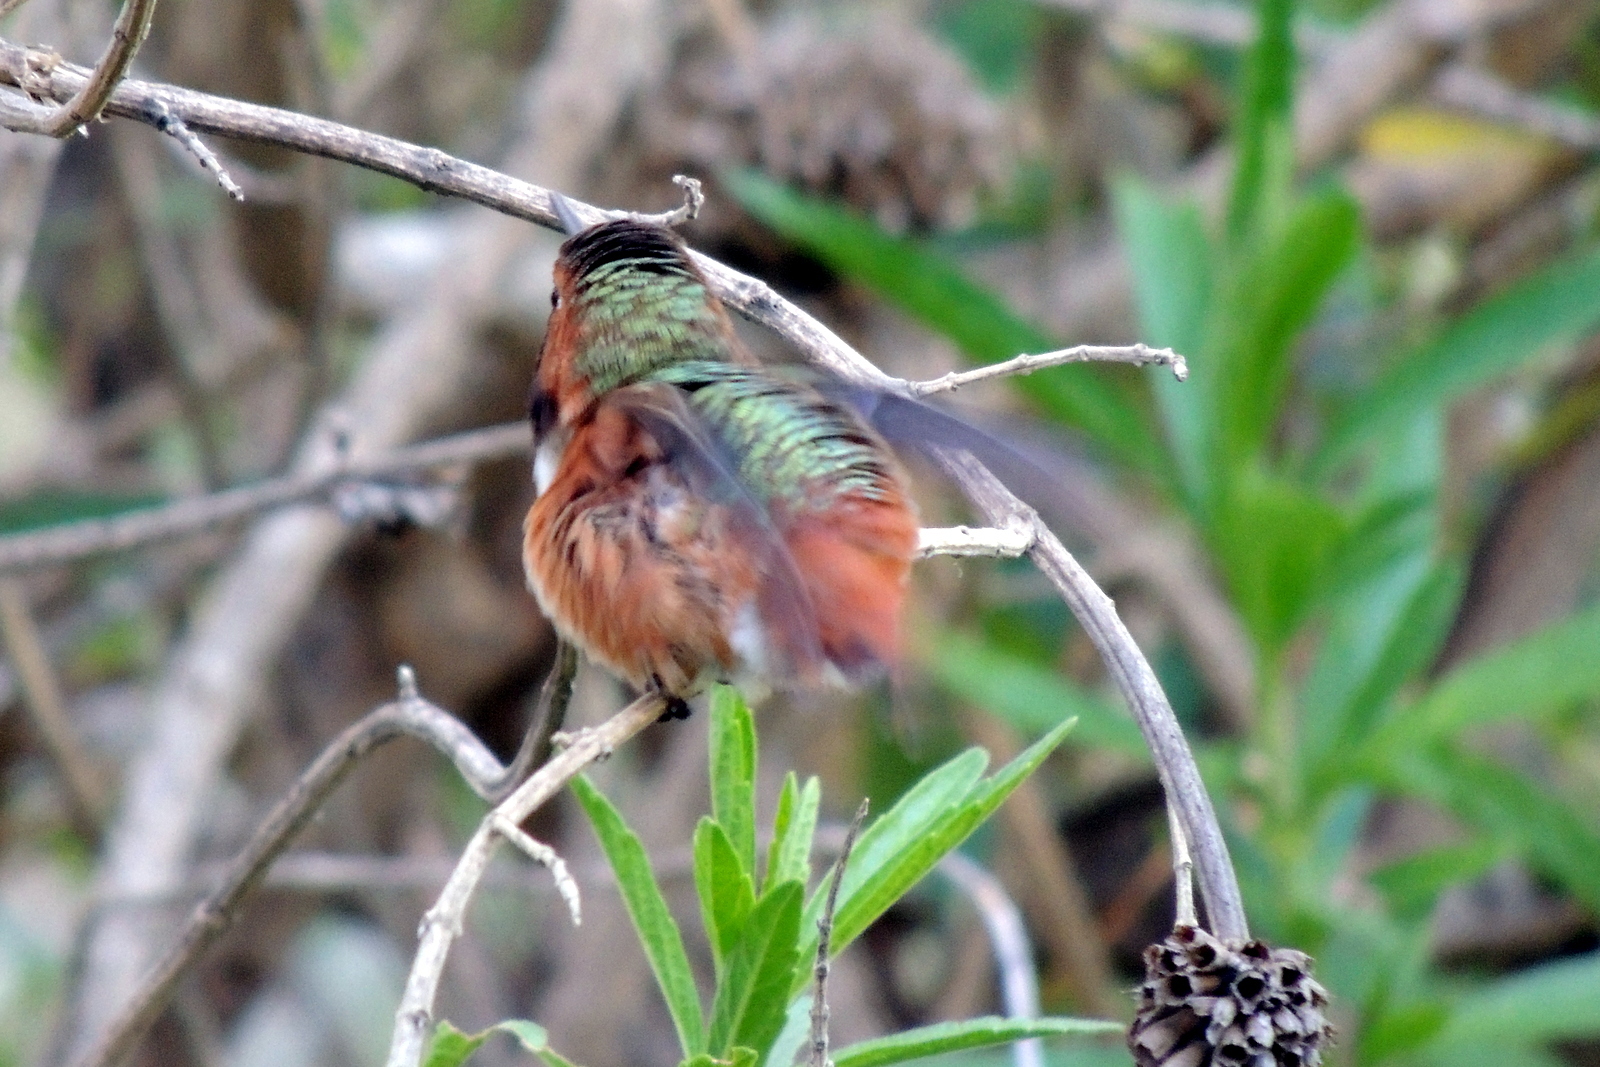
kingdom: Animalia
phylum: Chordata
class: Aves
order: Apodiformes
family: Trochilidae
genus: Selasphorus
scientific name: Selasphorus sasin
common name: Allen's hummingbird
